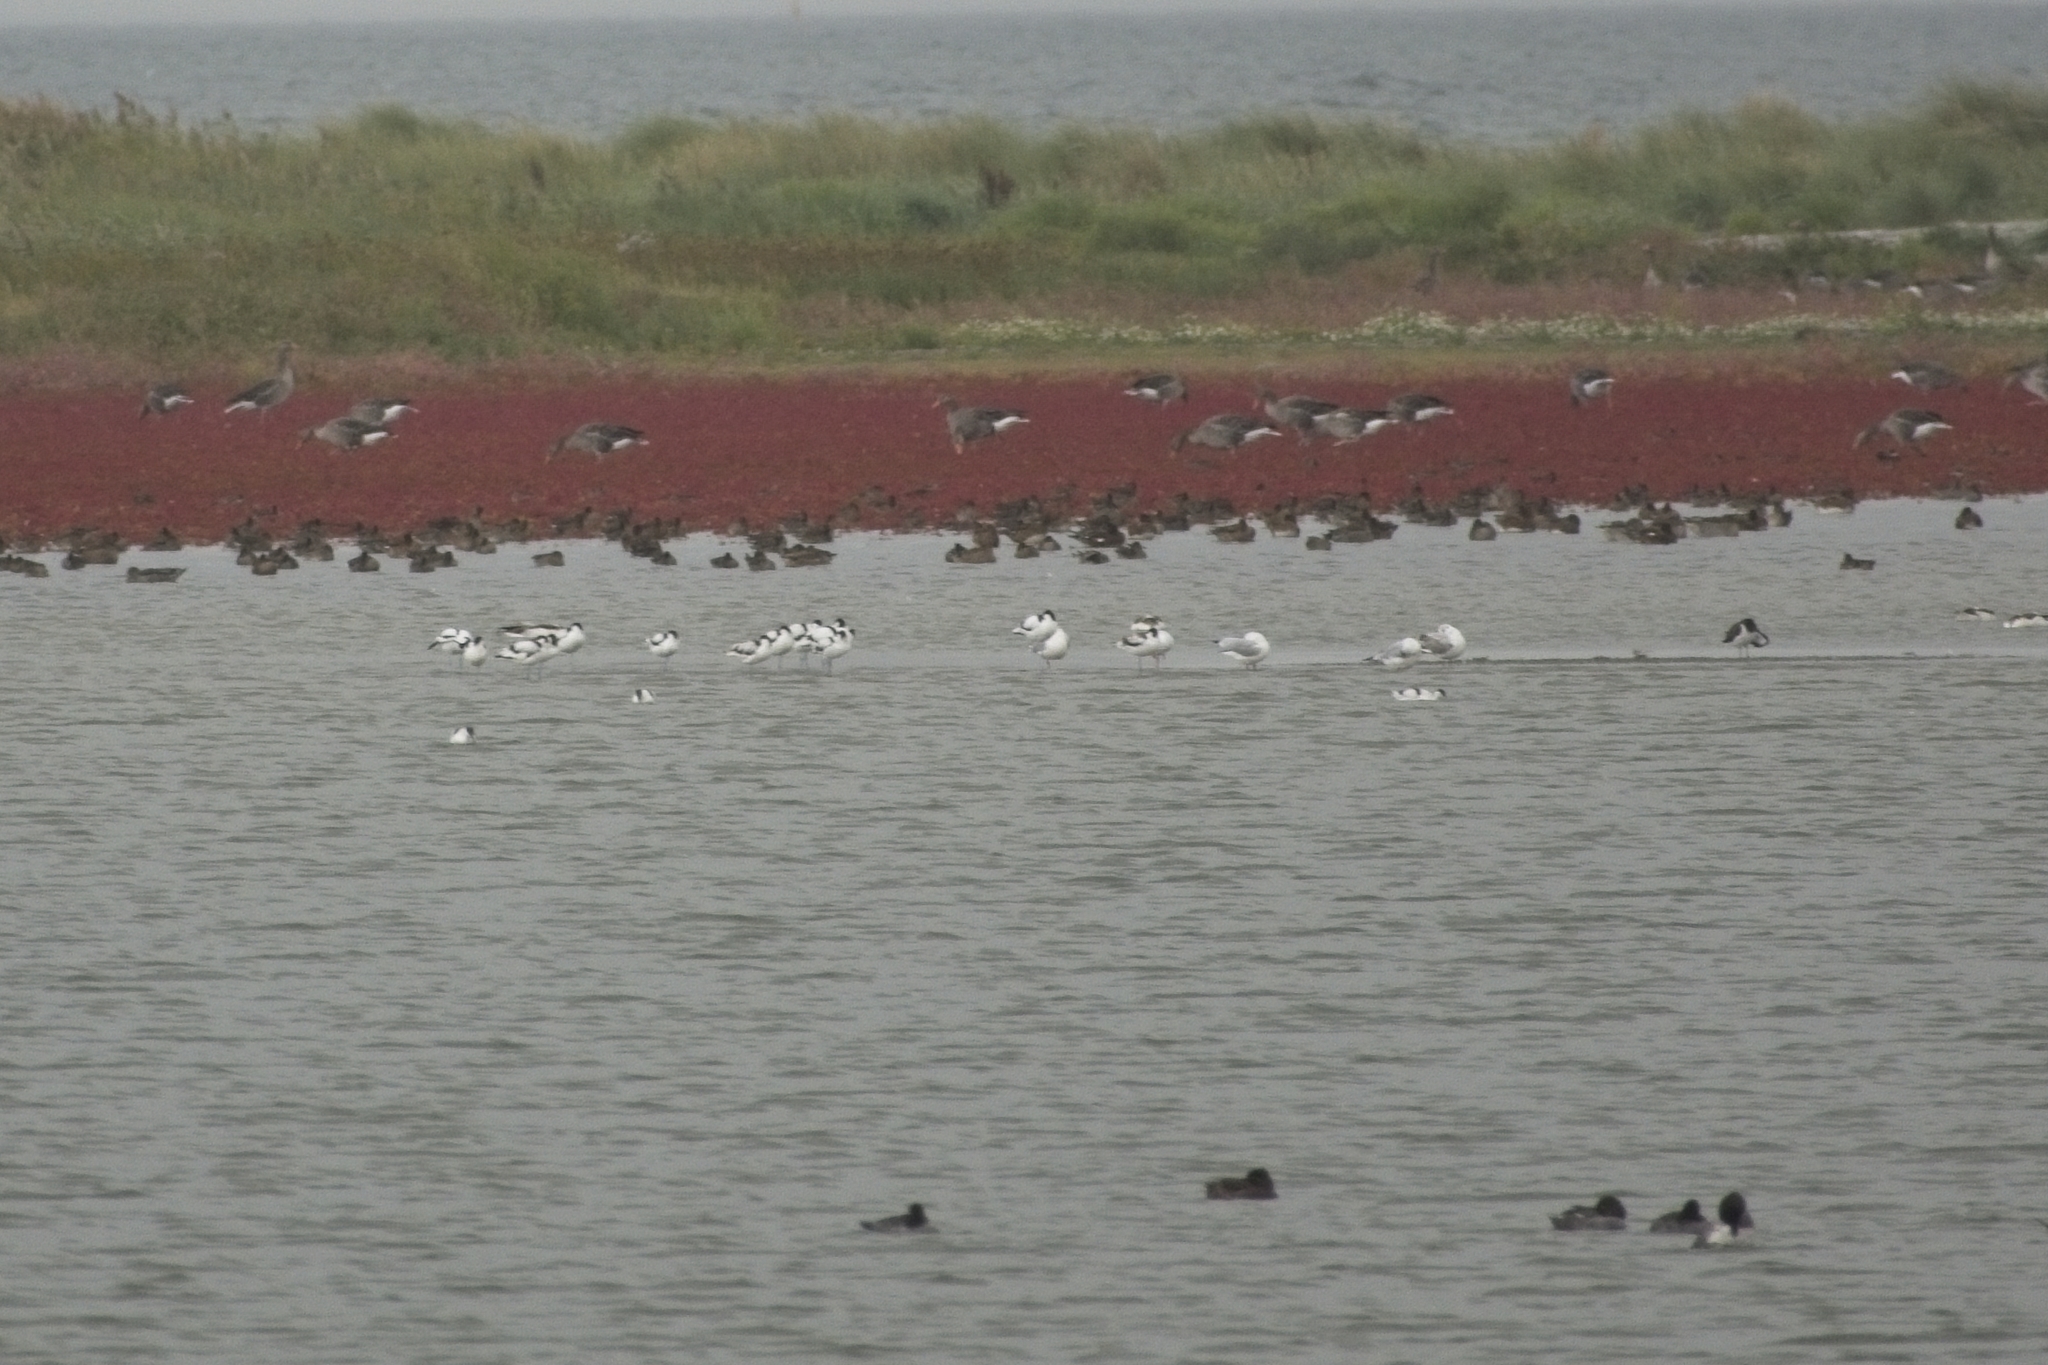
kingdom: Animalia
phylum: Chordata
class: Aves
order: Charadriiformes
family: Recurvirostridae
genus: Recurvirostra
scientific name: Recurvirostra avosetta
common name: Pied avocet
